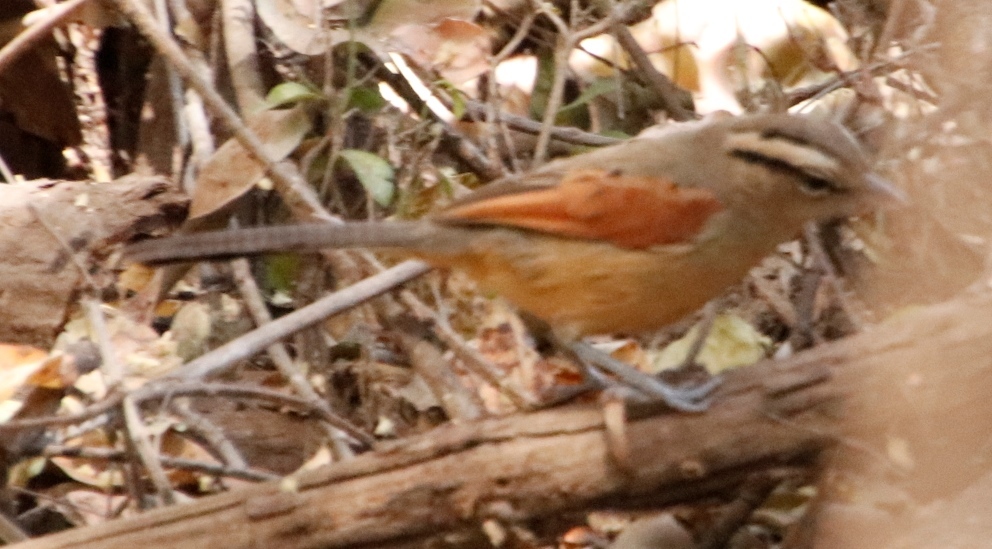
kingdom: Animalia
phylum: Chordata
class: Aves
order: Passeriformes
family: Malaconotidae
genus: Tchagra
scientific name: Tchagra australis
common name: Brown-crowned tchagra
